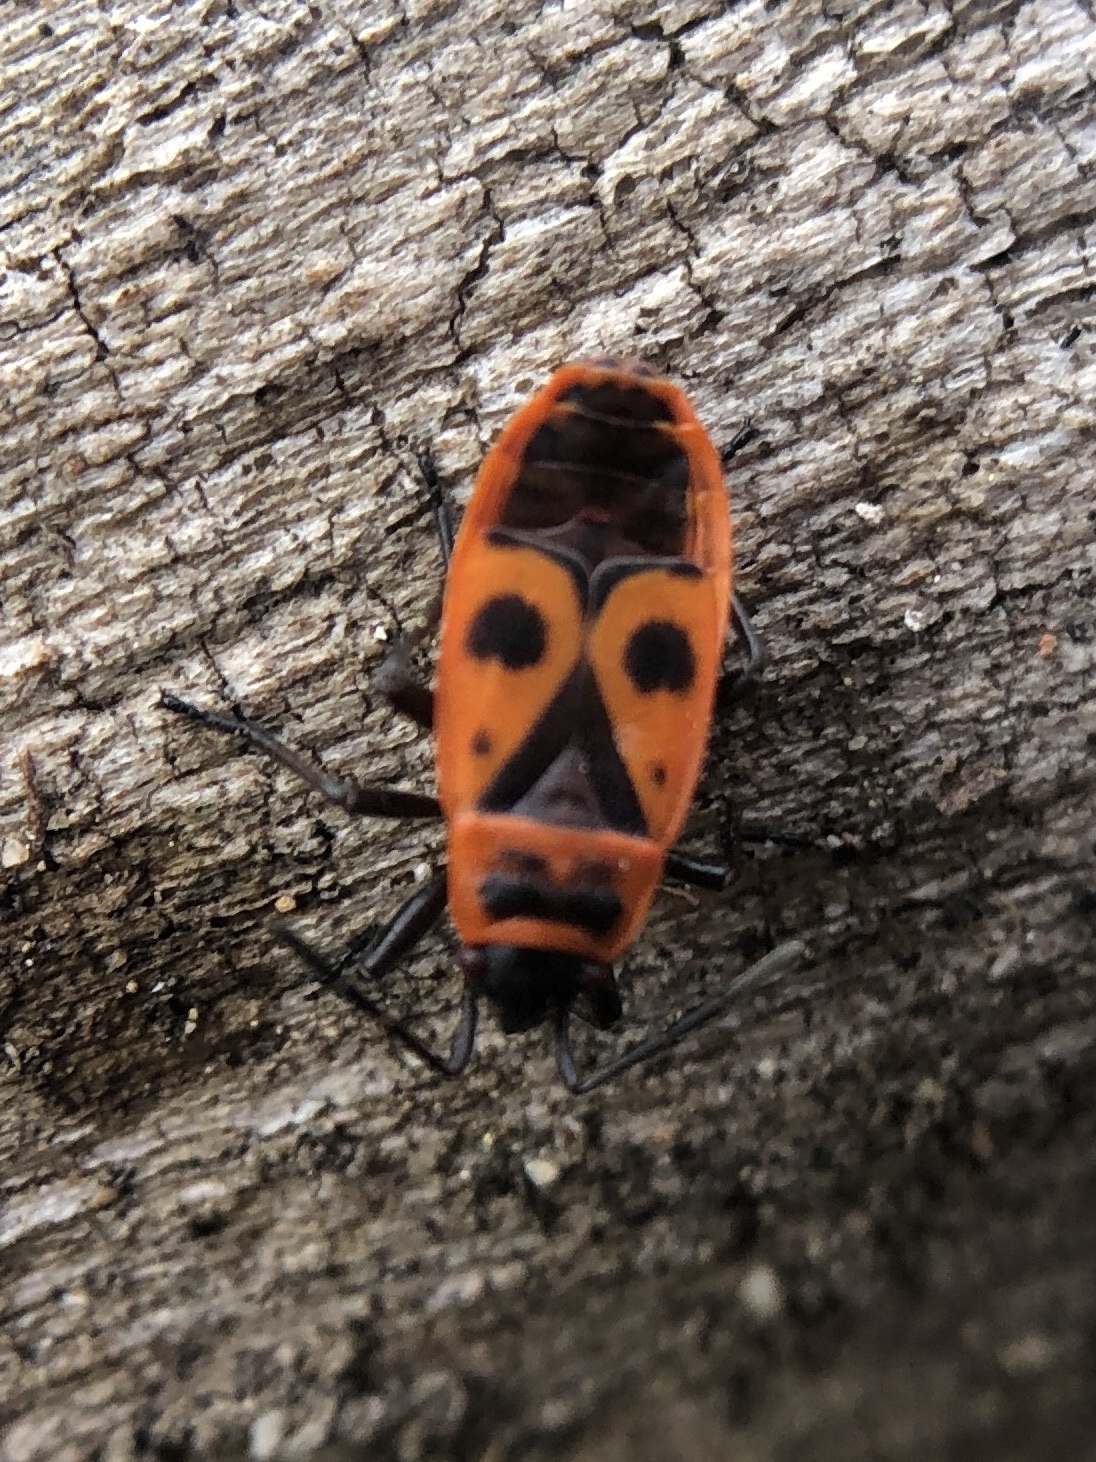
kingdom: Animalia
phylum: Arthropoda
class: Insecta
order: Hemiptera
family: Pyrrhocoridae
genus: Pyrrhocoris
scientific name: Pyrrhocoris apterus
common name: Firebug
